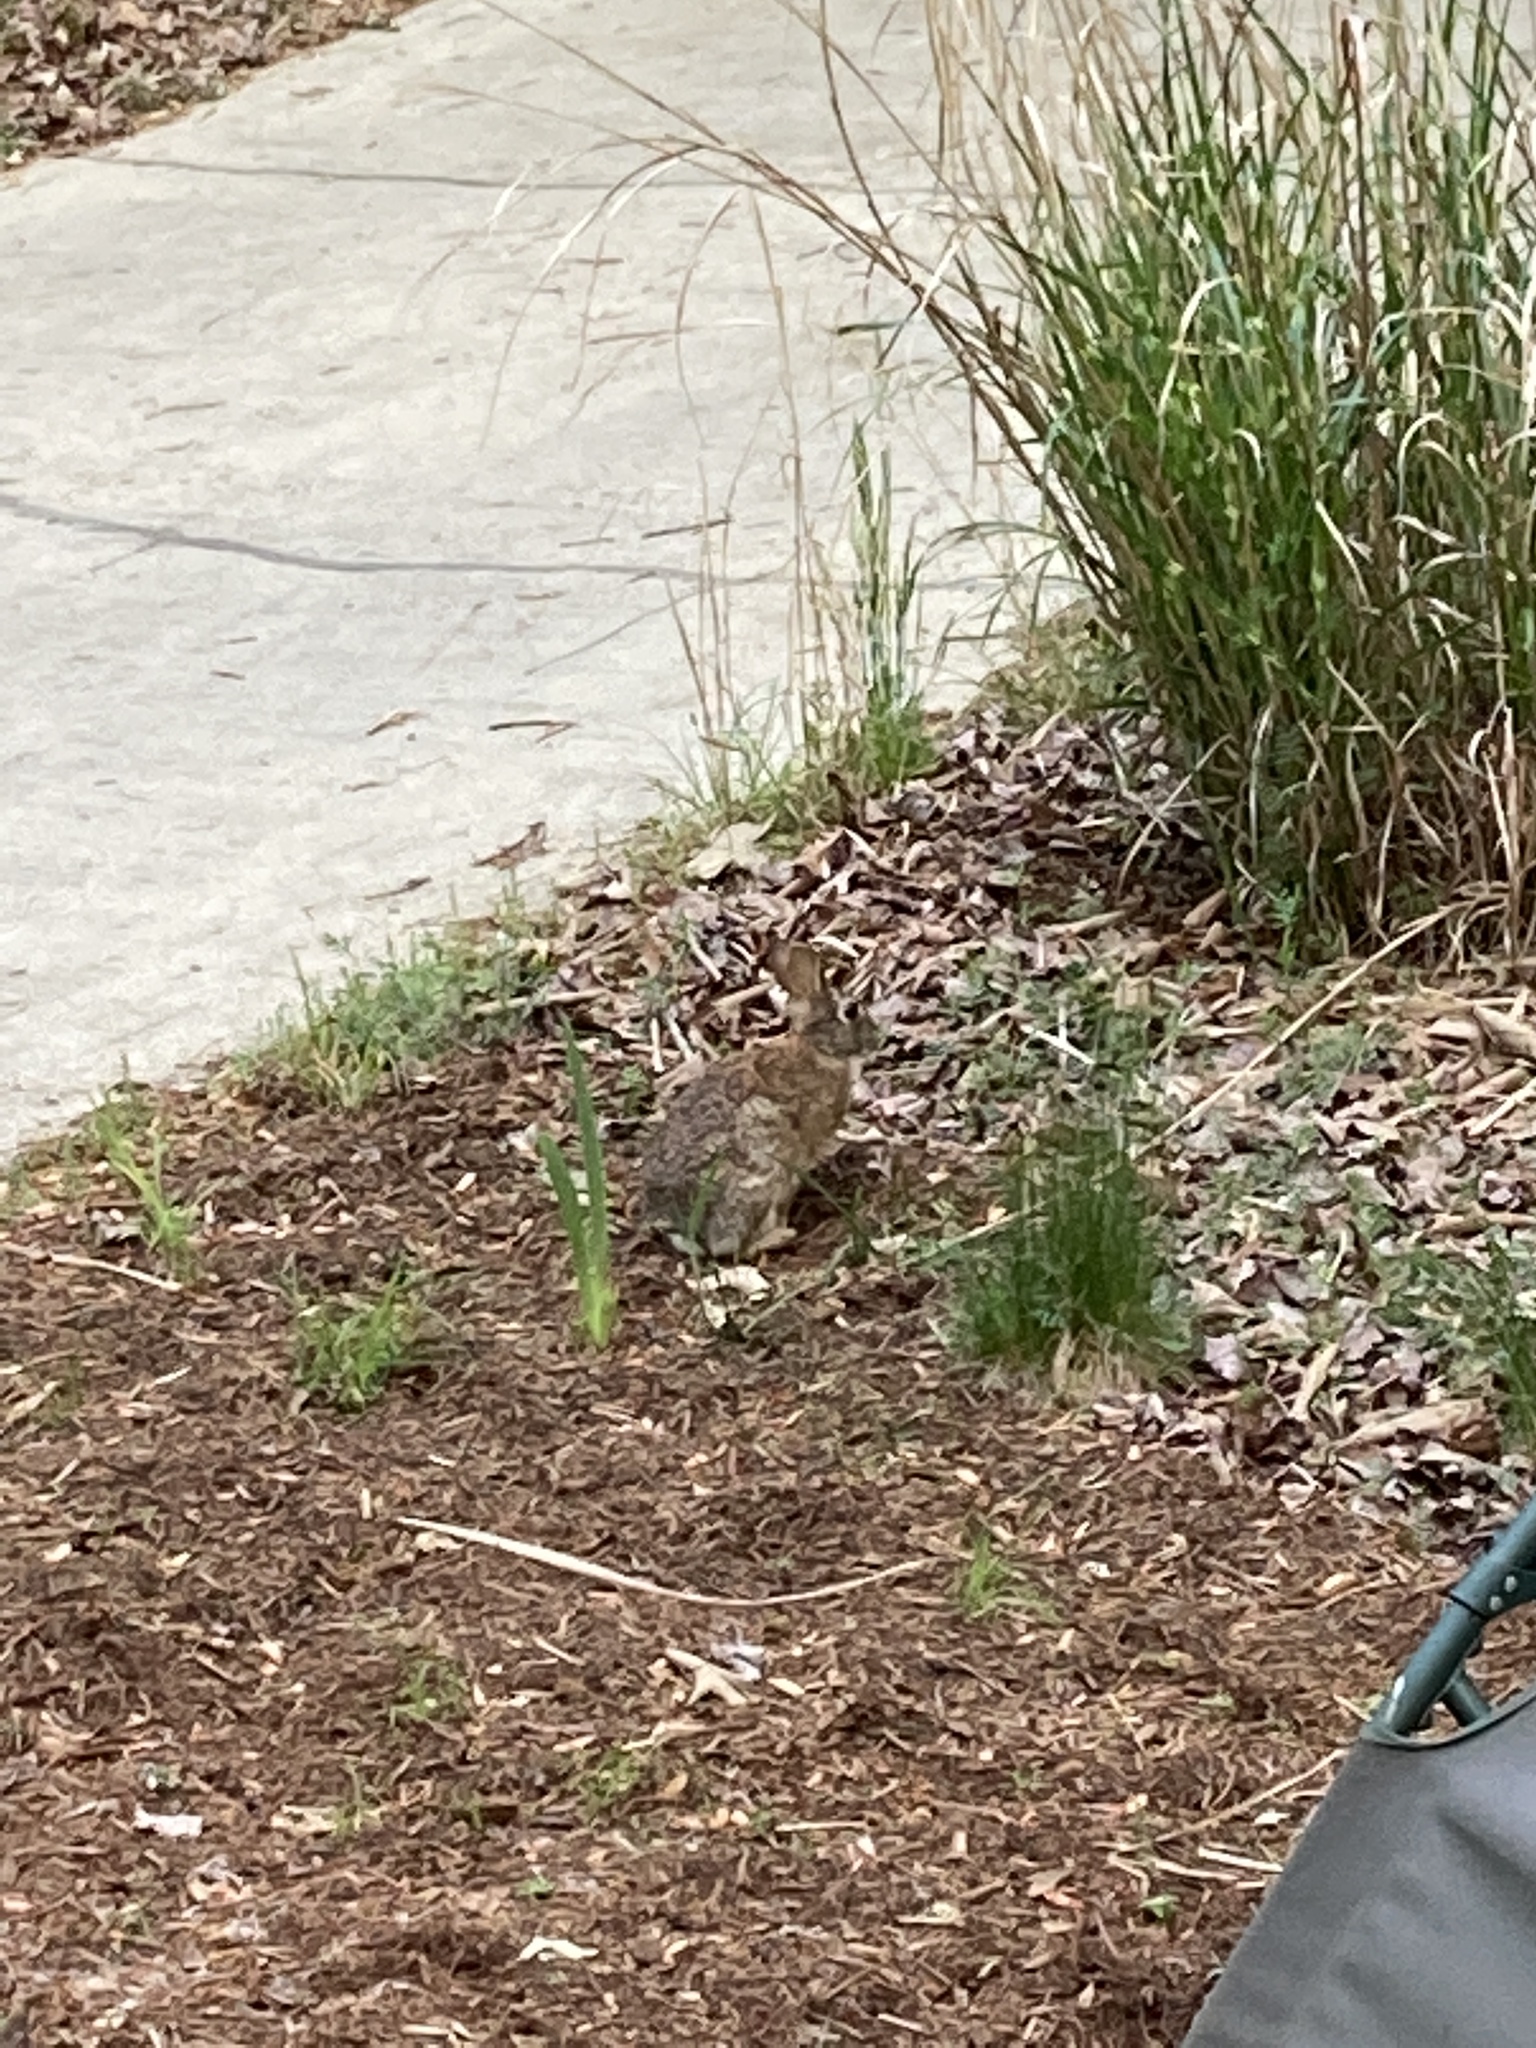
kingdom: Animalia
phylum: Chordata
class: Mammalia
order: Lagomorpha
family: Leporidae
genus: Sylvilagus
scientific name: Sylvilagus floridanus
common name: Eastern cottontail
